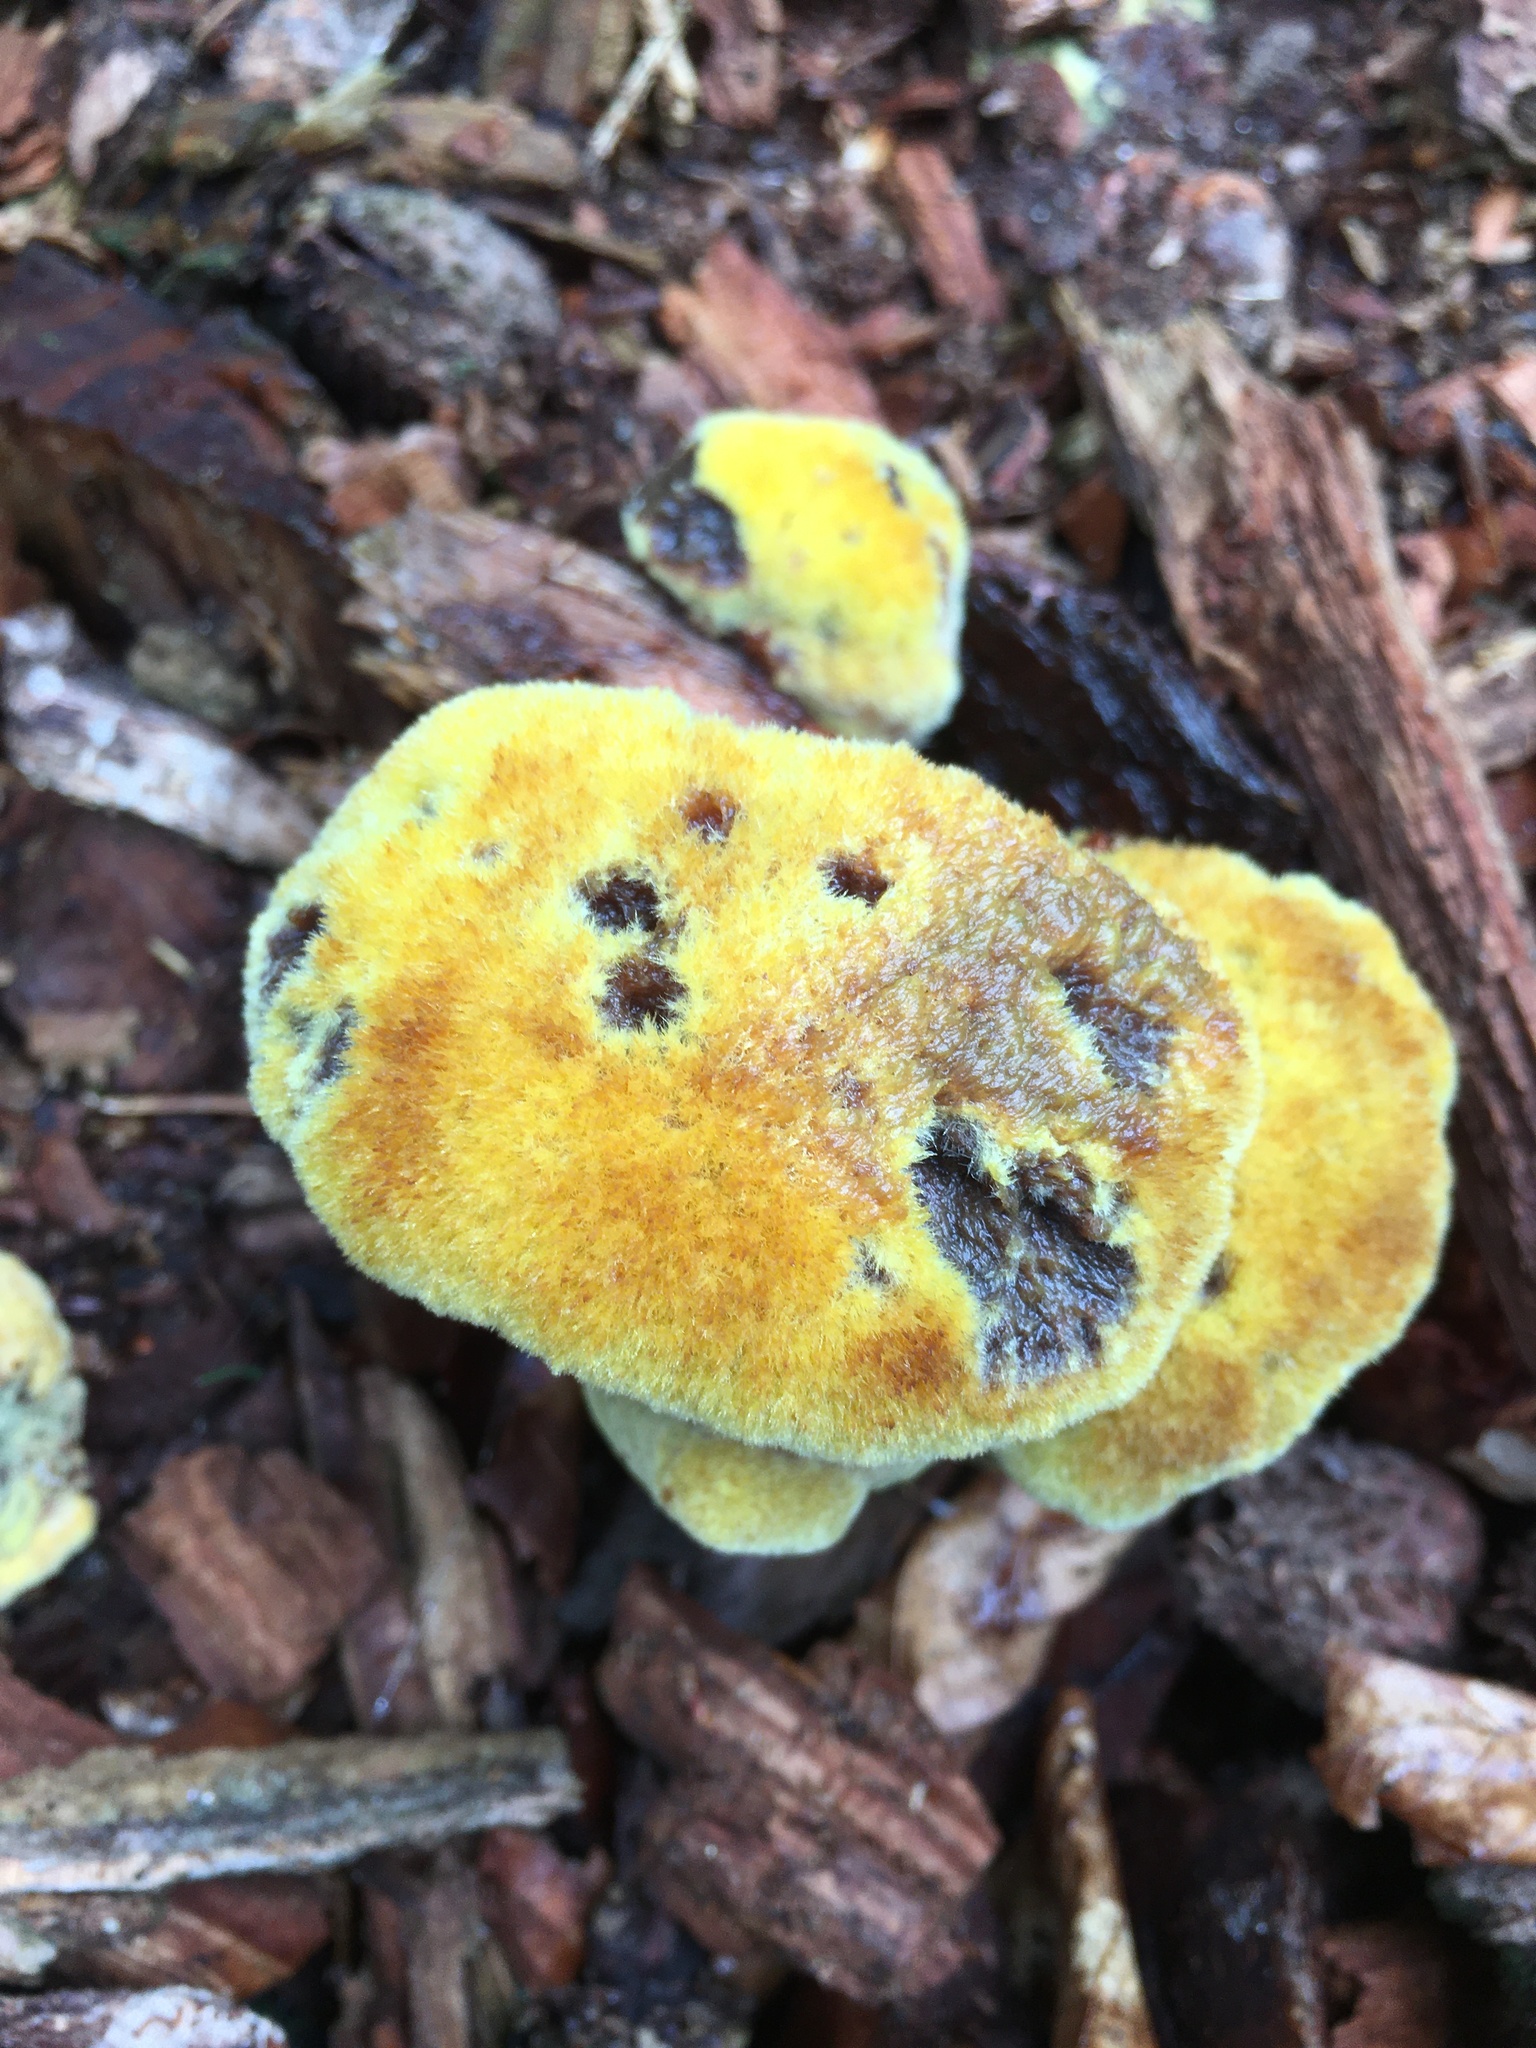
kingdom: Fungi
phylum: Basidiomycota
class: Agaricomycetes
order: Polyporales
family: Laetiporaceae
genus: Phaeolus
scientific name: Phaeolus schweinitzii
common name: Dyer's mazegill
